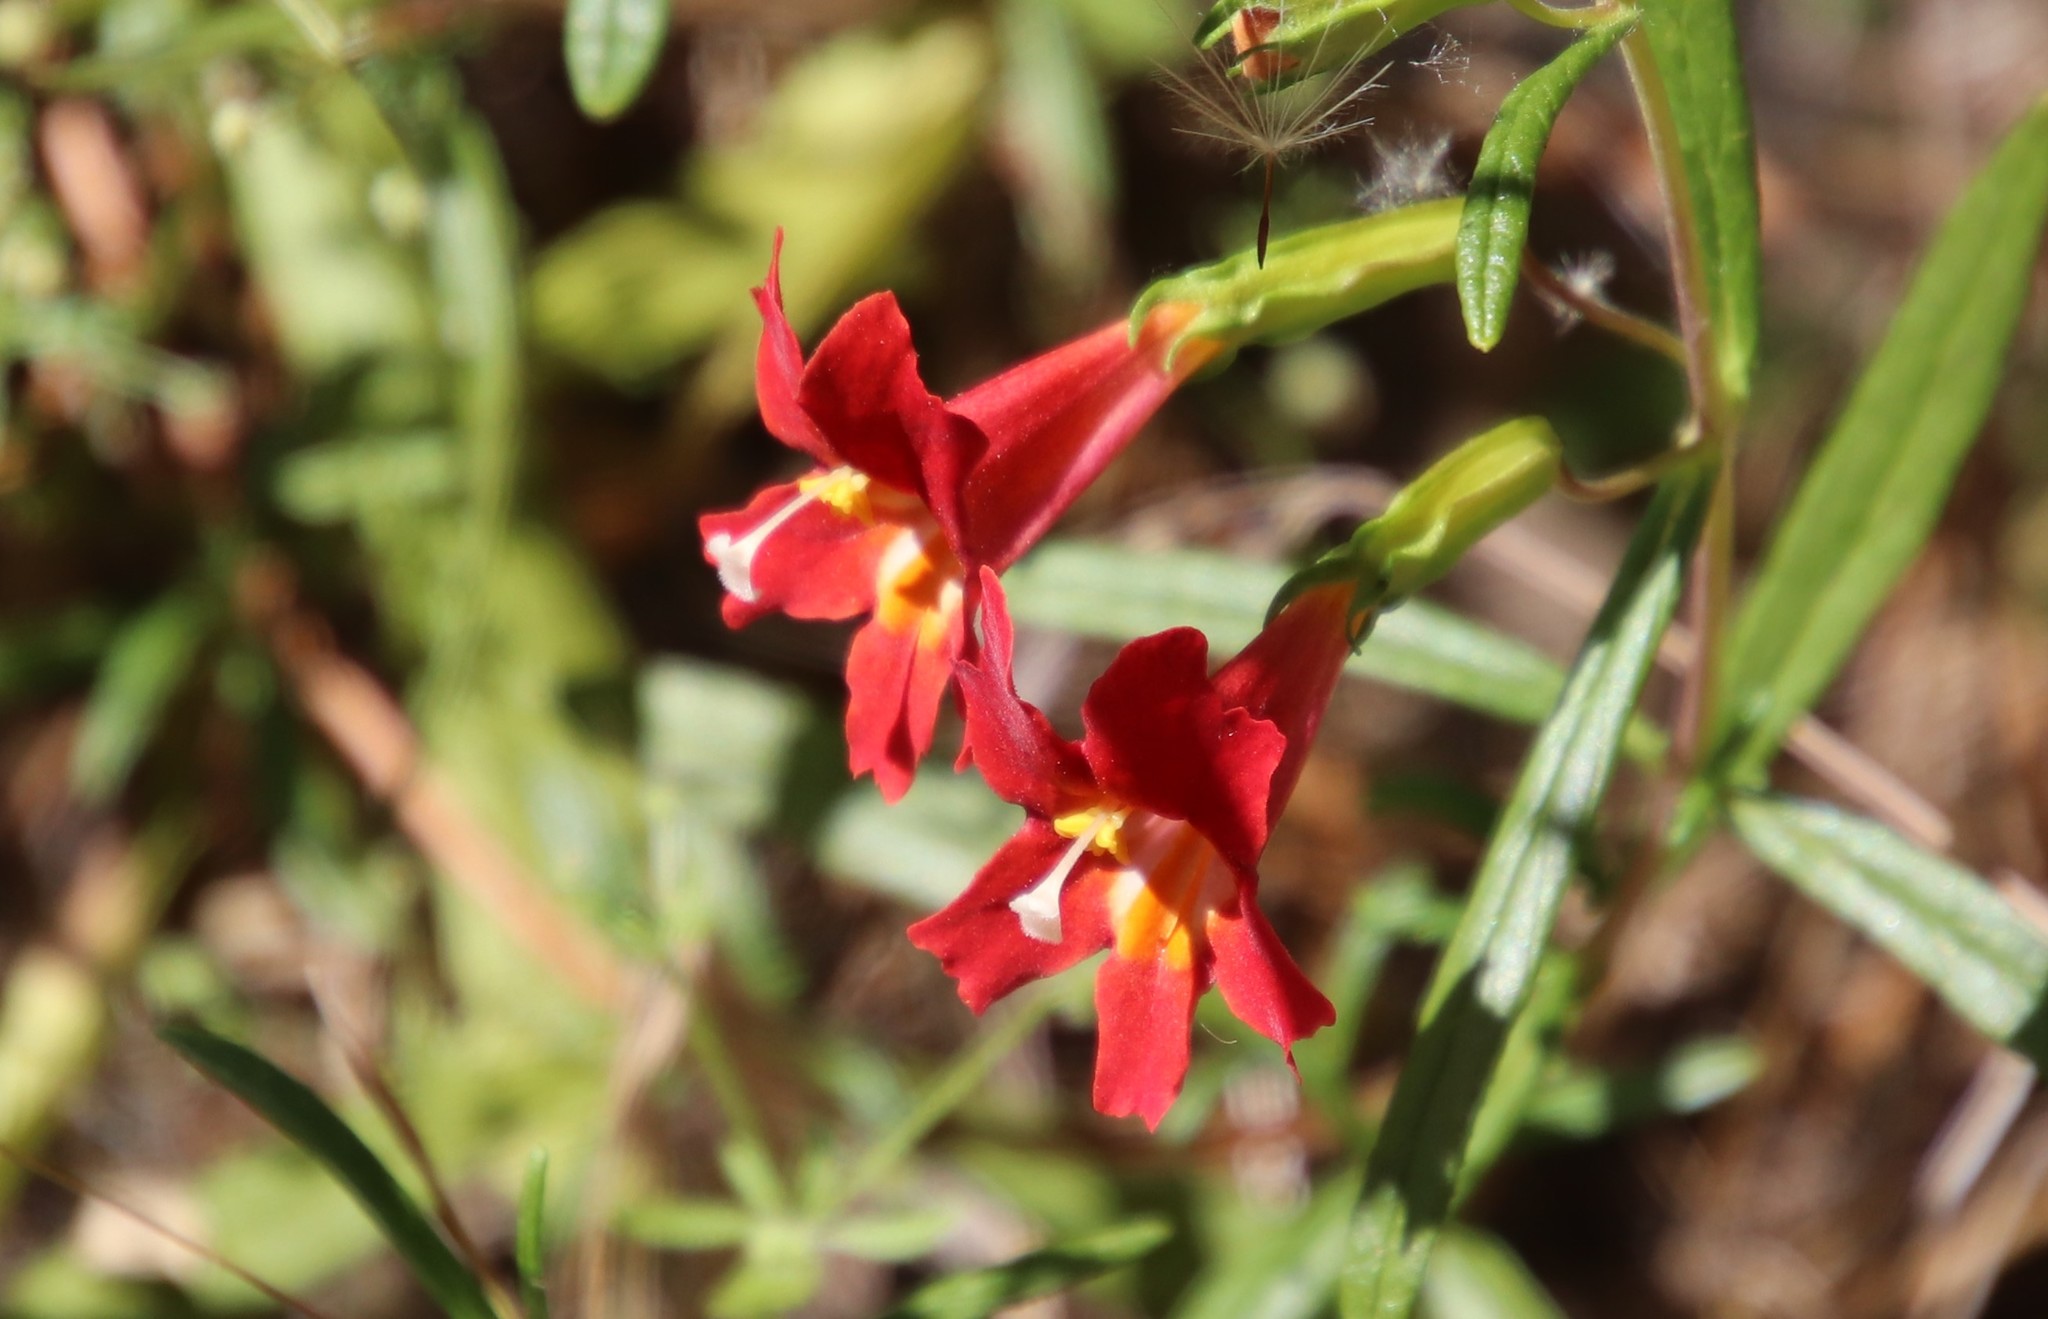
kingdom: Plantae
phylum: Tracheophyta
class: Magnoliopsida
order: Lamiales
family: Phrymaceae
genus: Diplacus
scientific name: Diplacus puniceus
